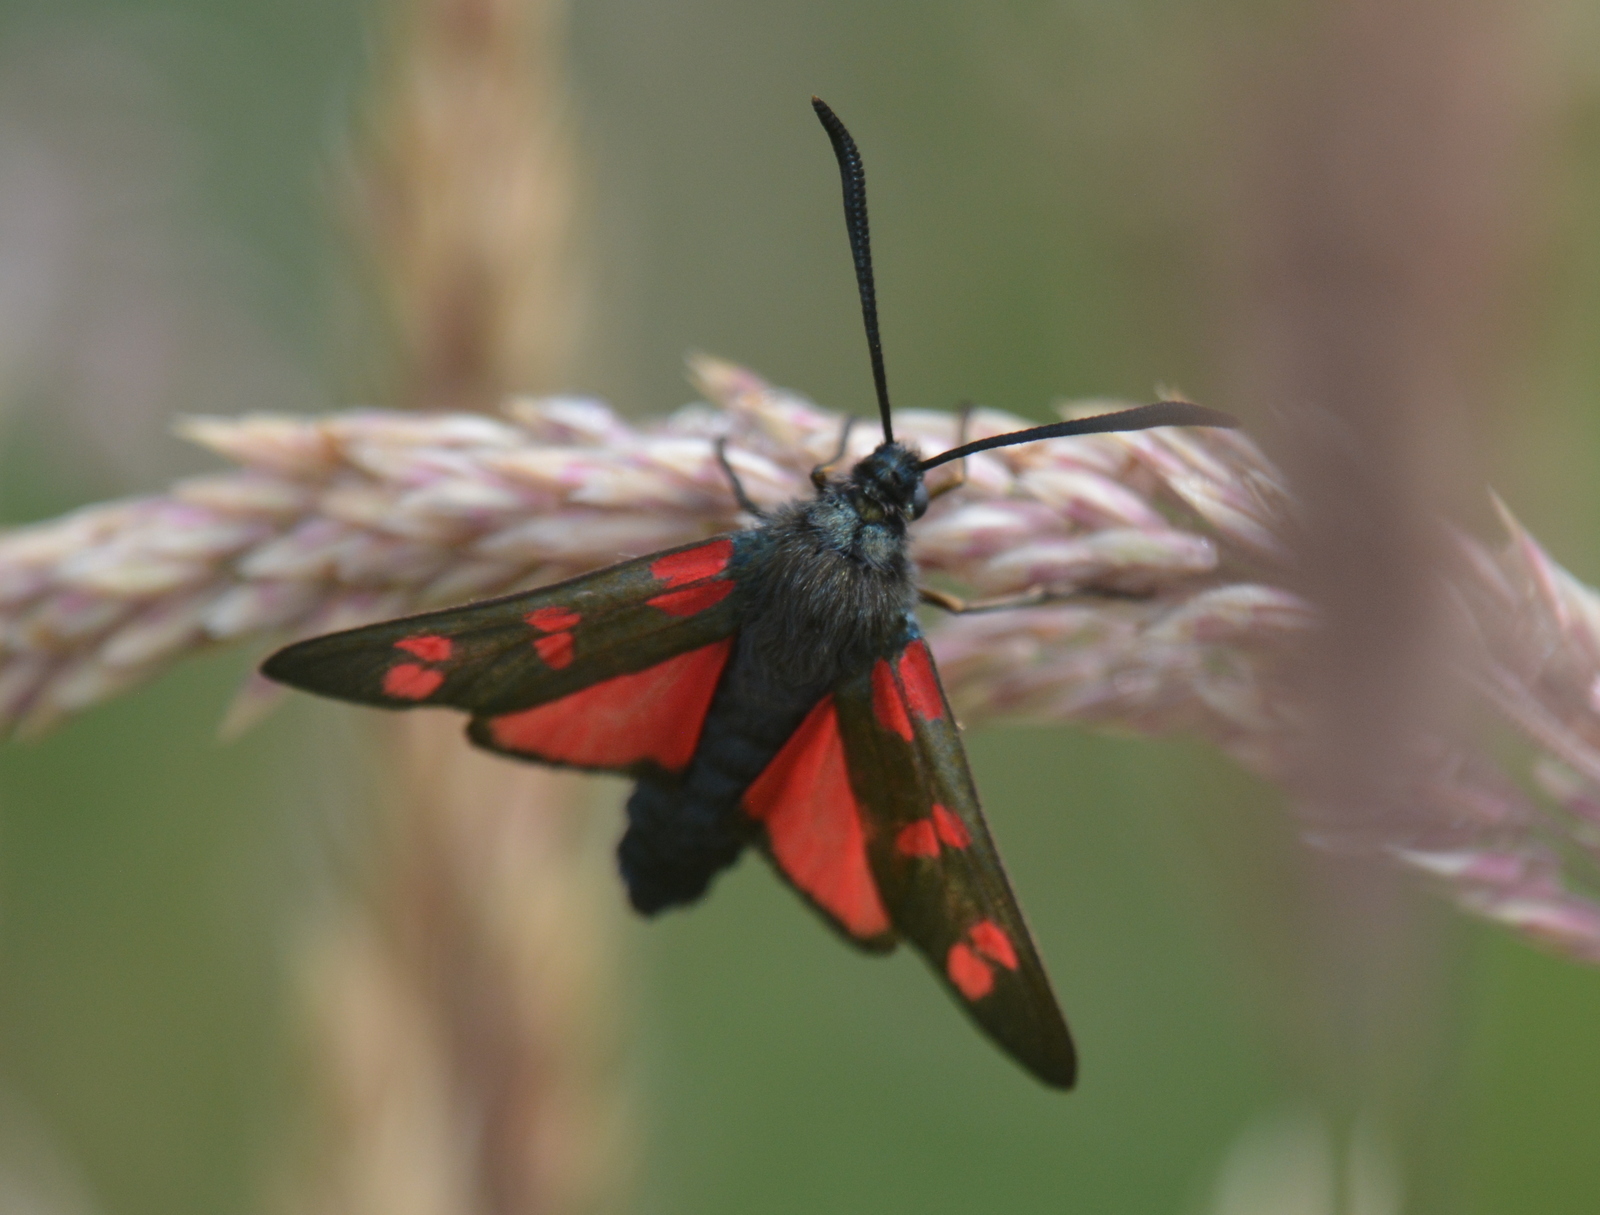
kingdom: Animalia
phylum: Arthropoda
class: Insecta
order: Lepidoptera
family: Zygaenidae
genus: Zygaena
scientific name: Zygaena filipendulae
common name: Six-spot burnet
